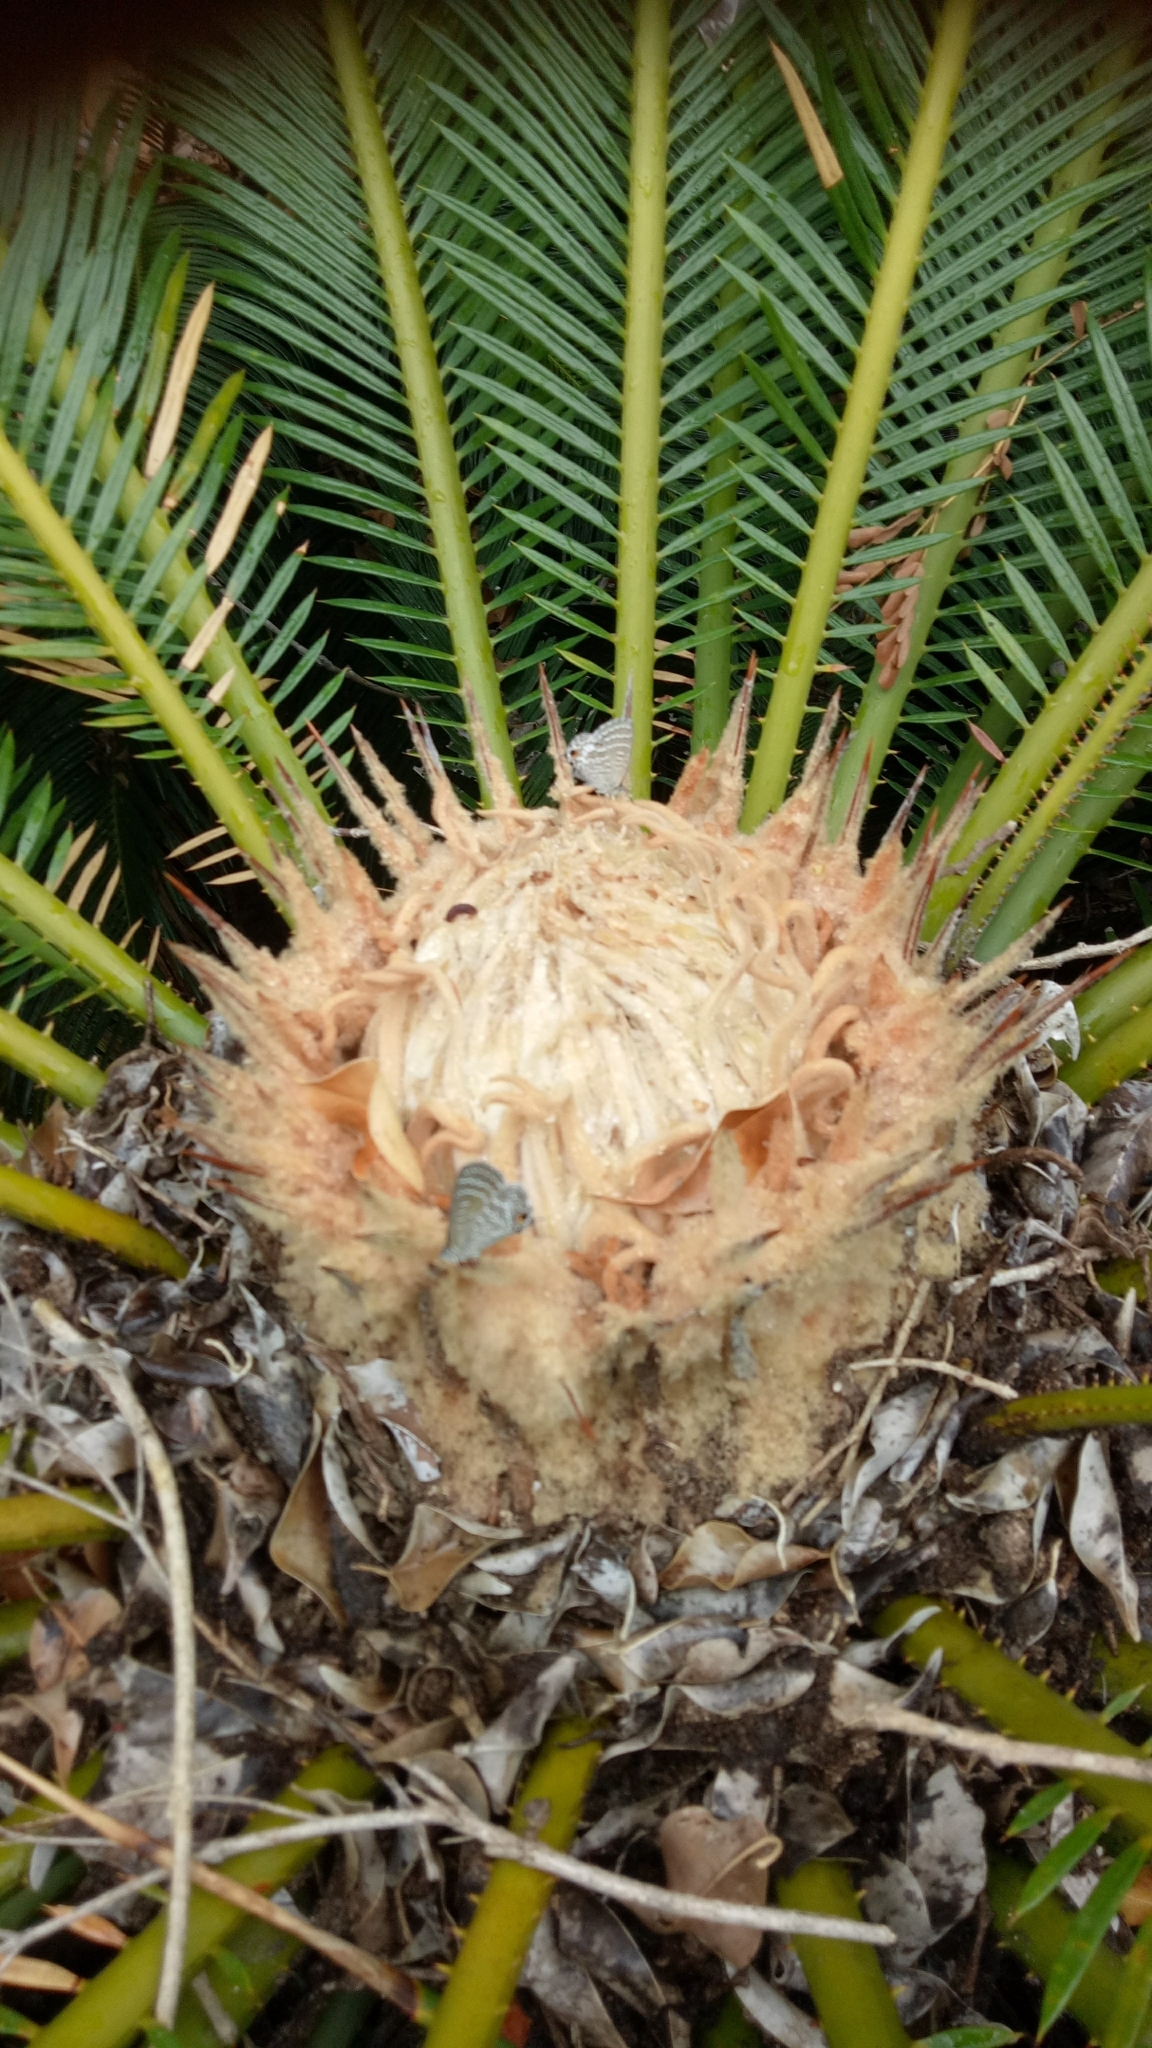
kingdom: Animalia
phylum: Arthropoda
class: Insecta
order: Lepidoptera
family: Lycaenidae
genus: Theclinesthes
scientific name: Theclinesthes onycha
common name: Cycad blue
